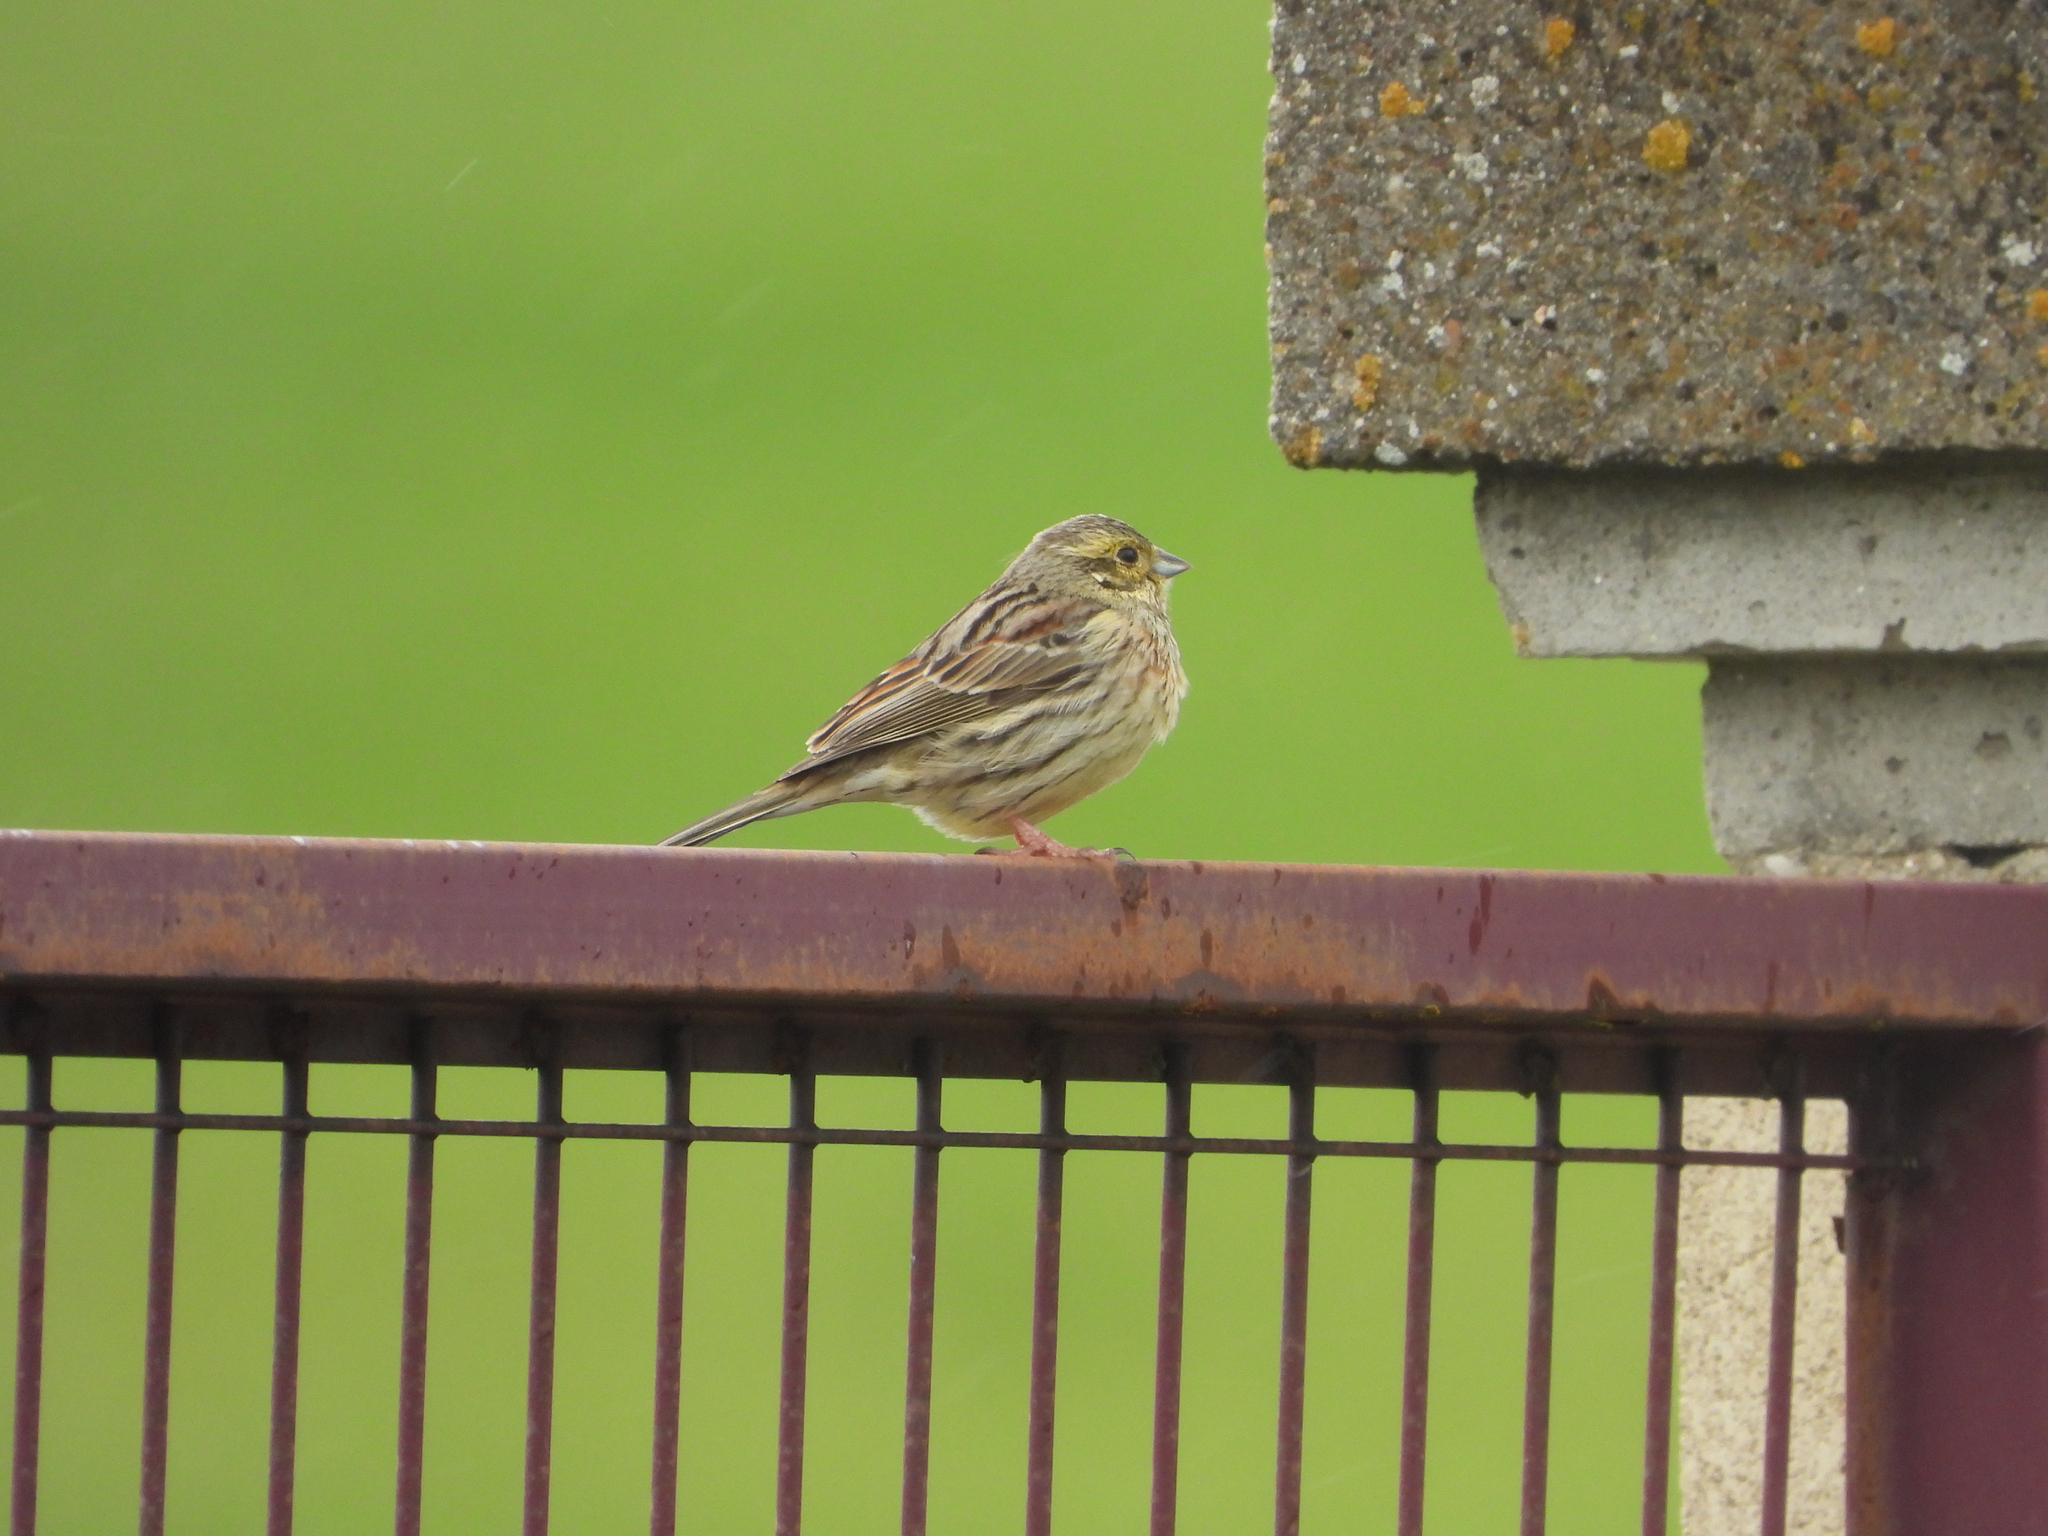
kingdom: Animalia
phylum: Chordata
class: Aves
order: Passeriformes
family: Emberizidae
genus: Emberiza
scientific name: Emberiza cirlus
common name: Cirl bunting
